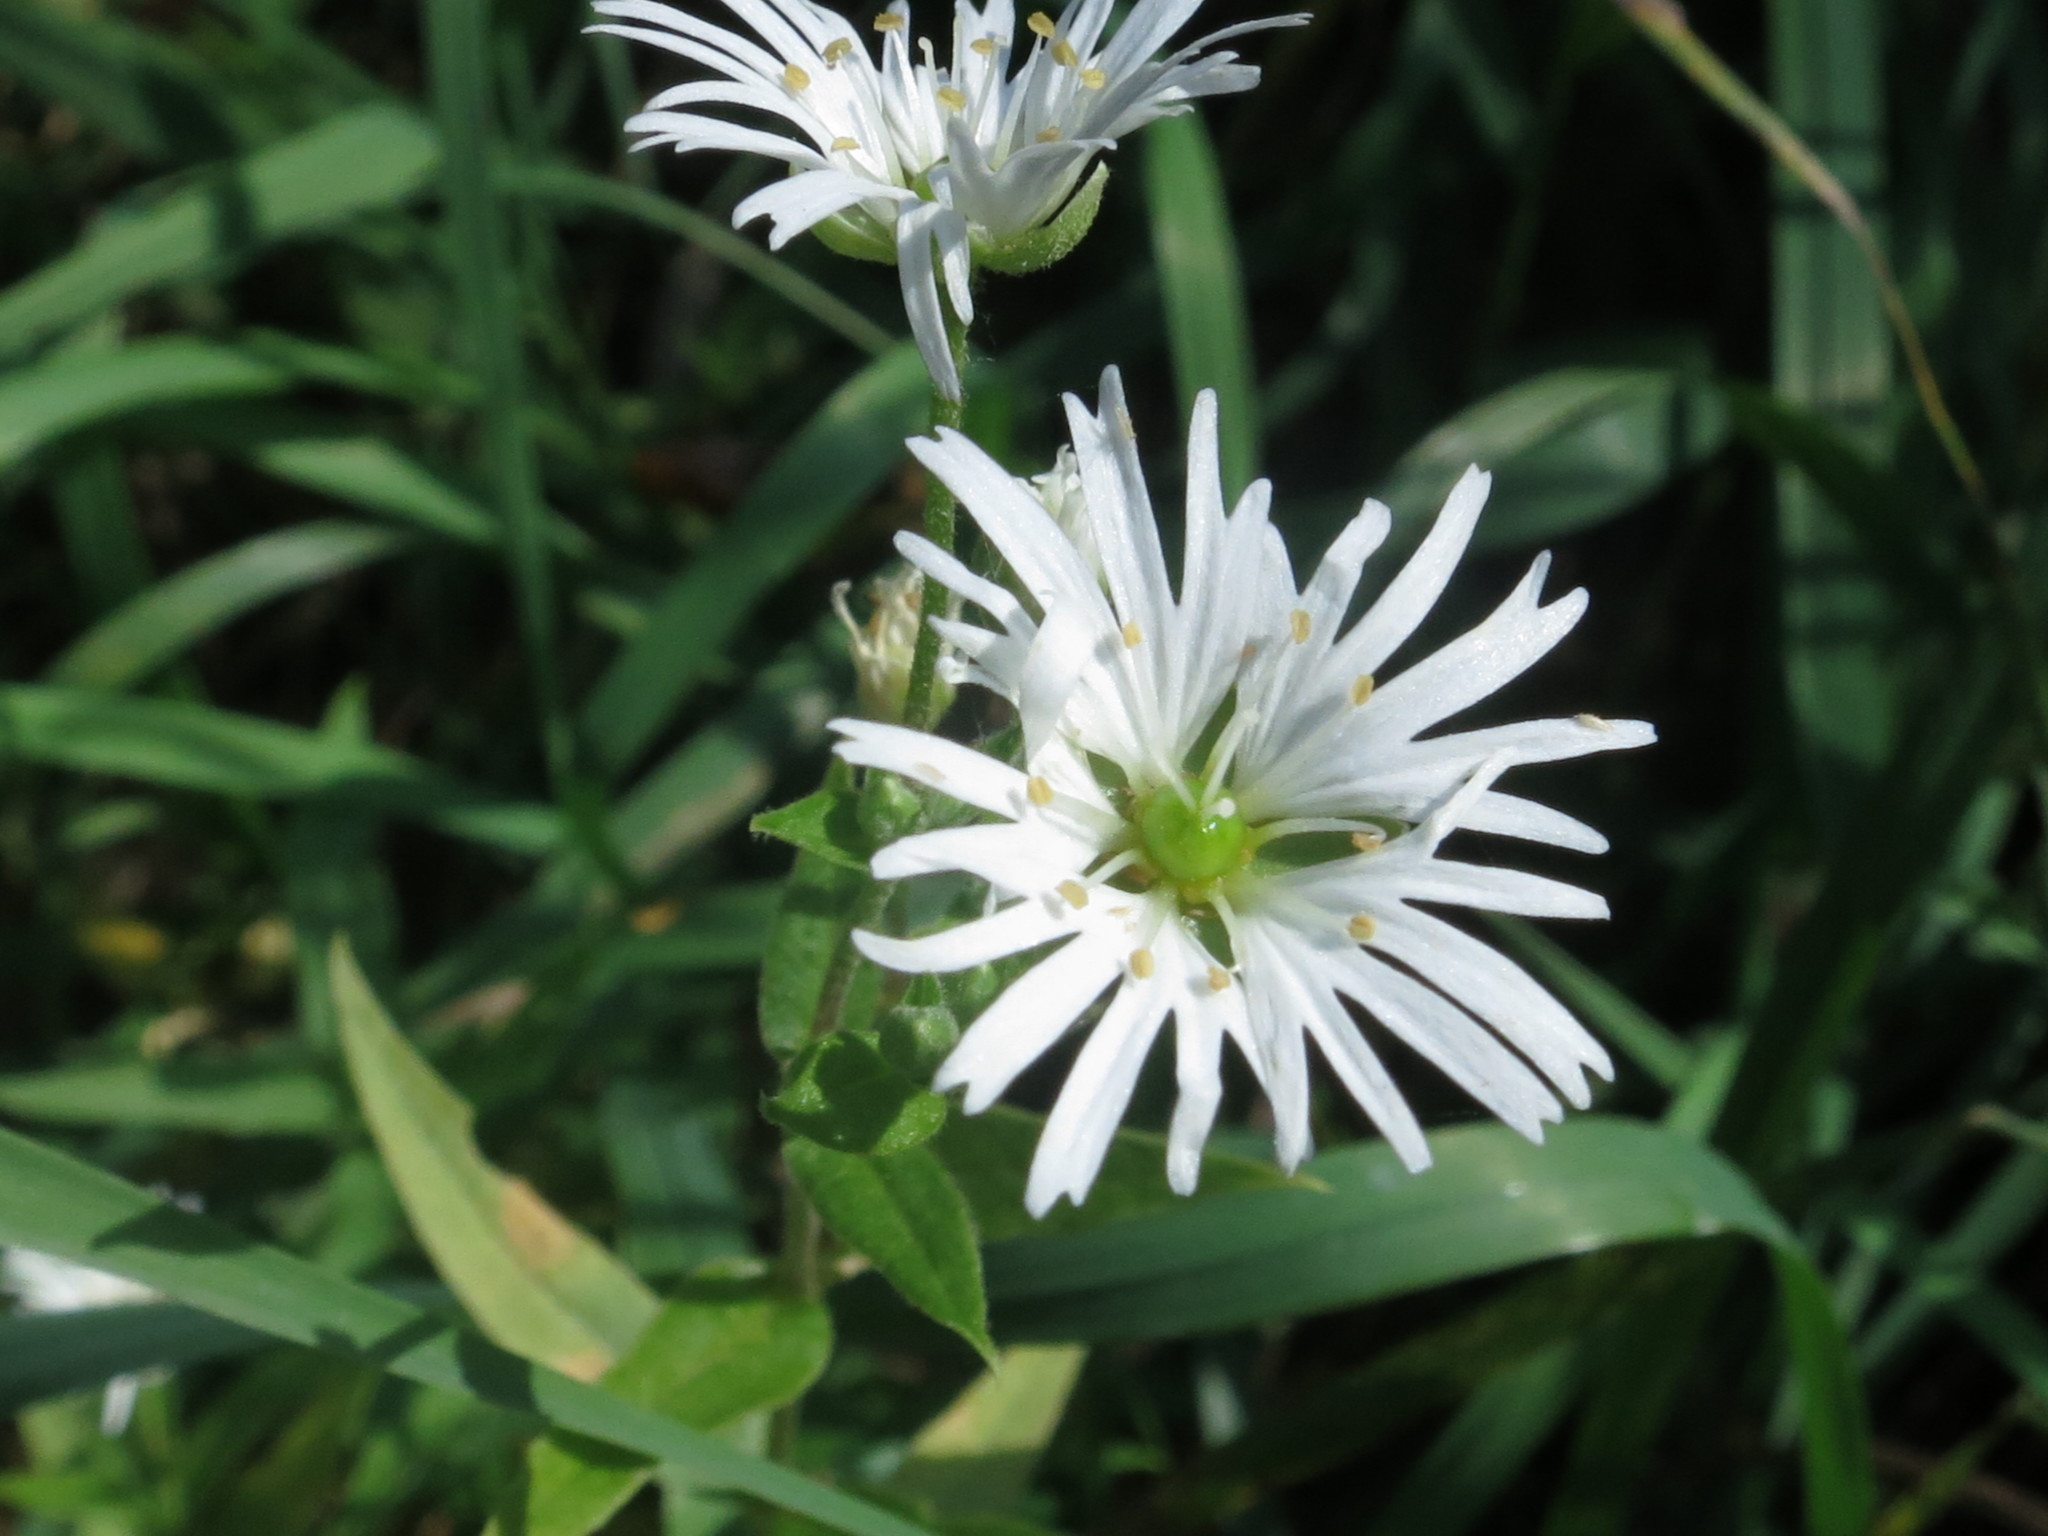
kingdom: Plantae
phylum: Tracheophyta
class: Magnoliopsida
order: Caryophyllales
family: Caryophyllaceae
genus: Stellaria
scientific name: Stellaria radians
